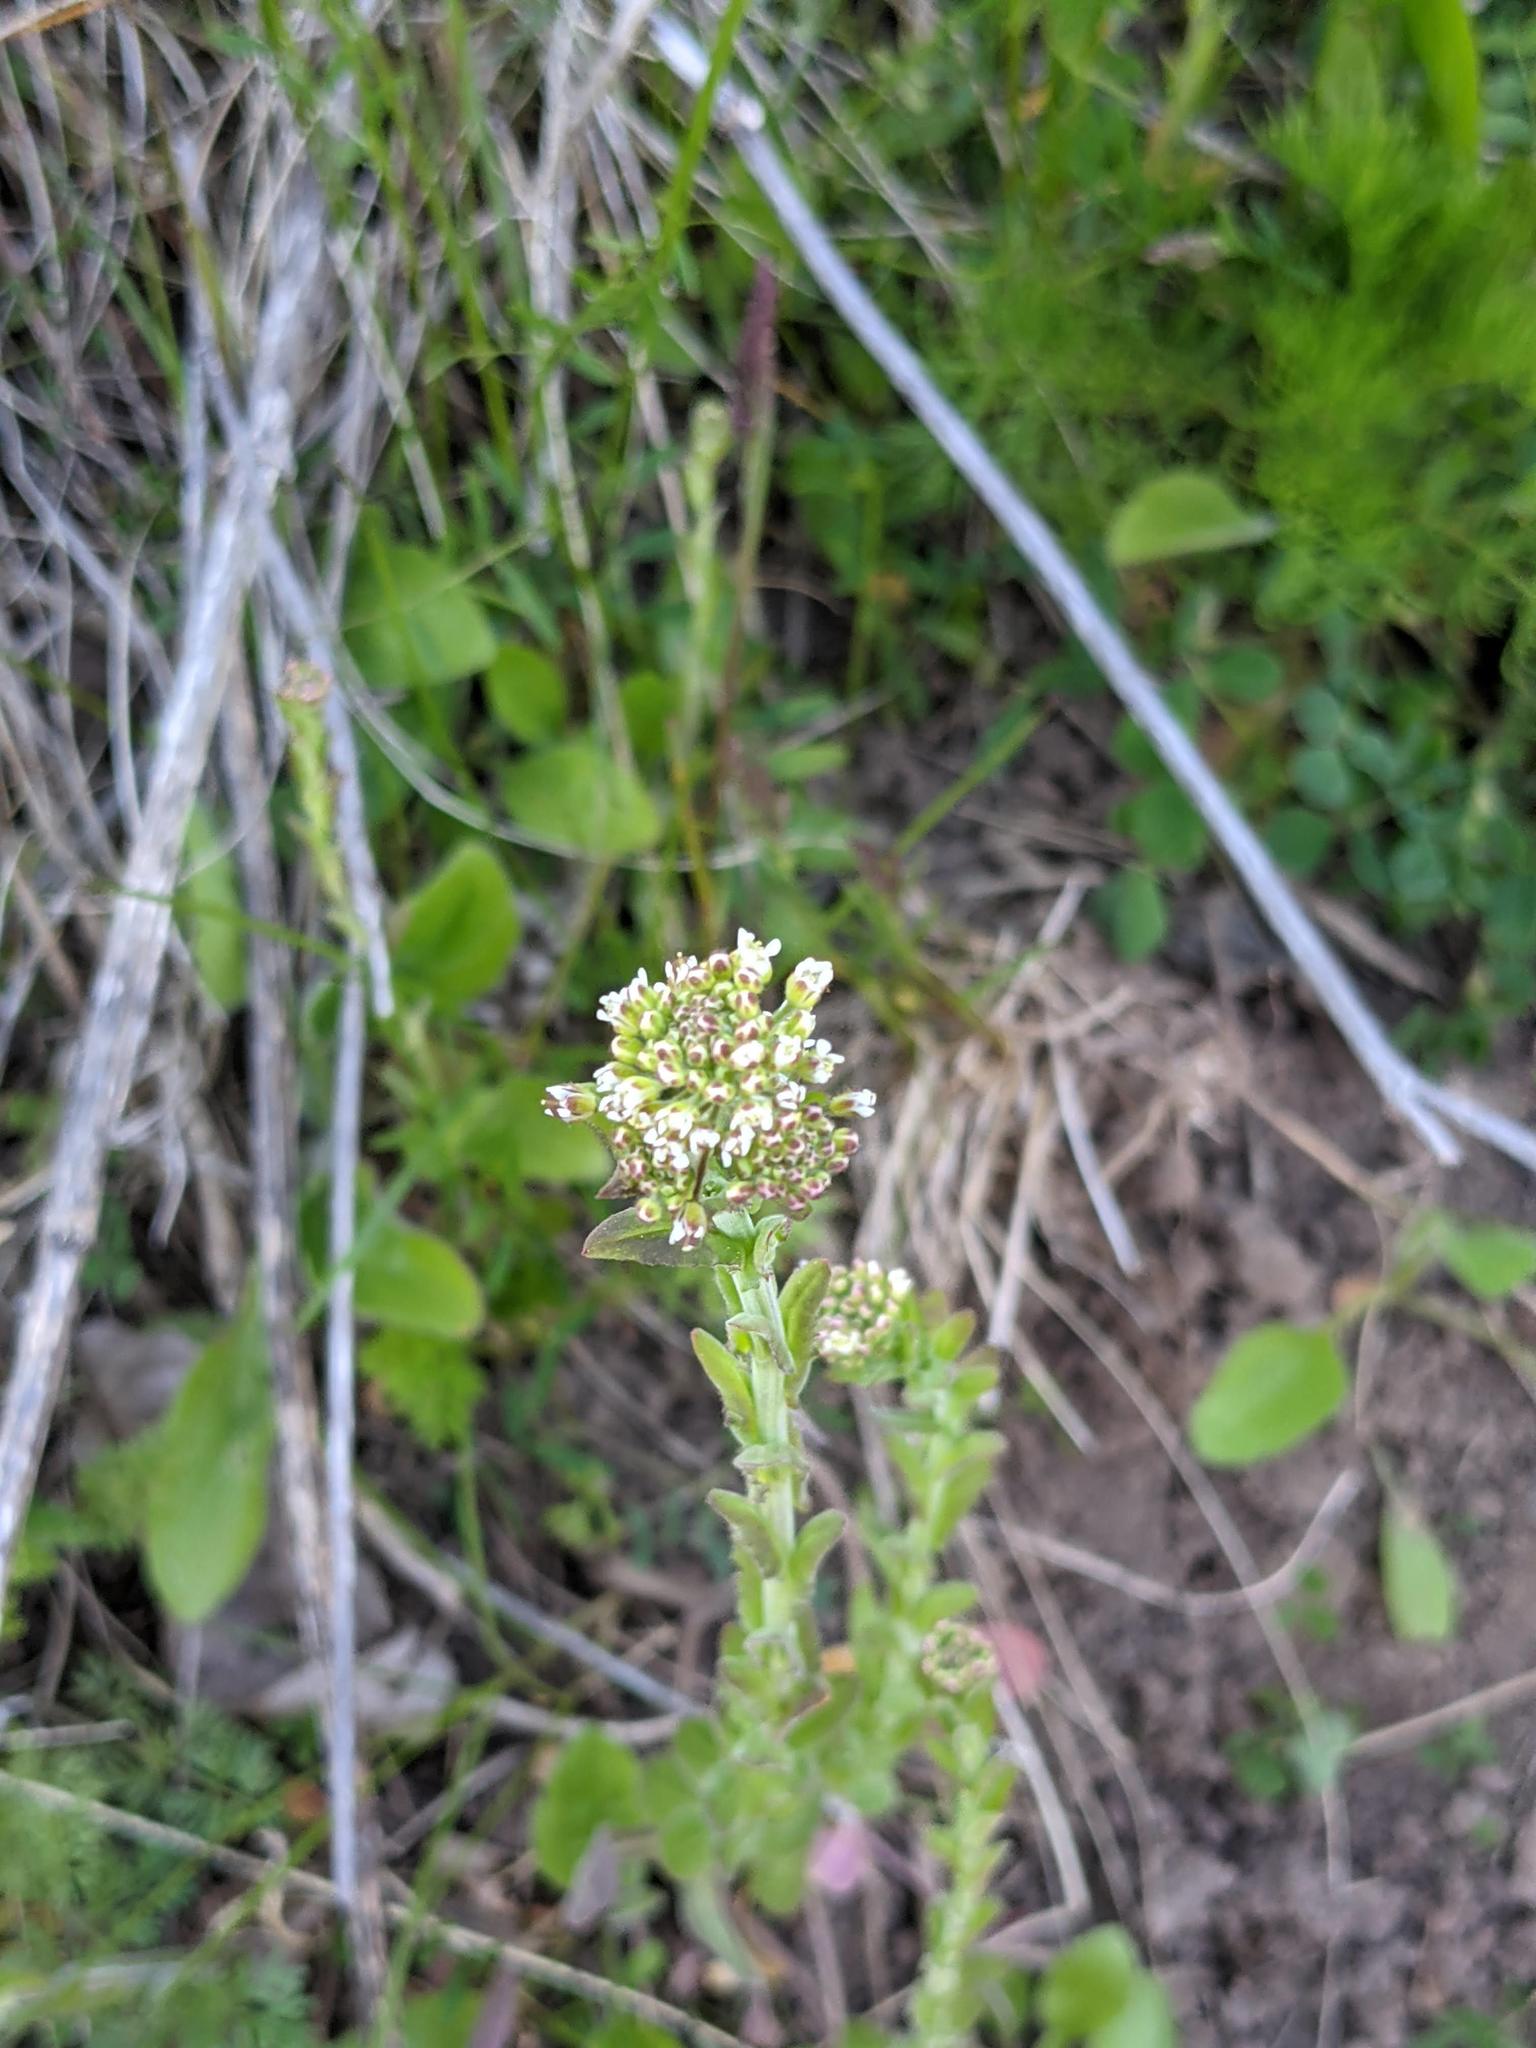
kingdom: Plantae
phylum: Tracheophyta
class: Magnoliopsida
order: Brassicales
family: Brassicaceae
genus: Lepidium
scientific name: Lepidium campestre
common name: Field pepperwort
